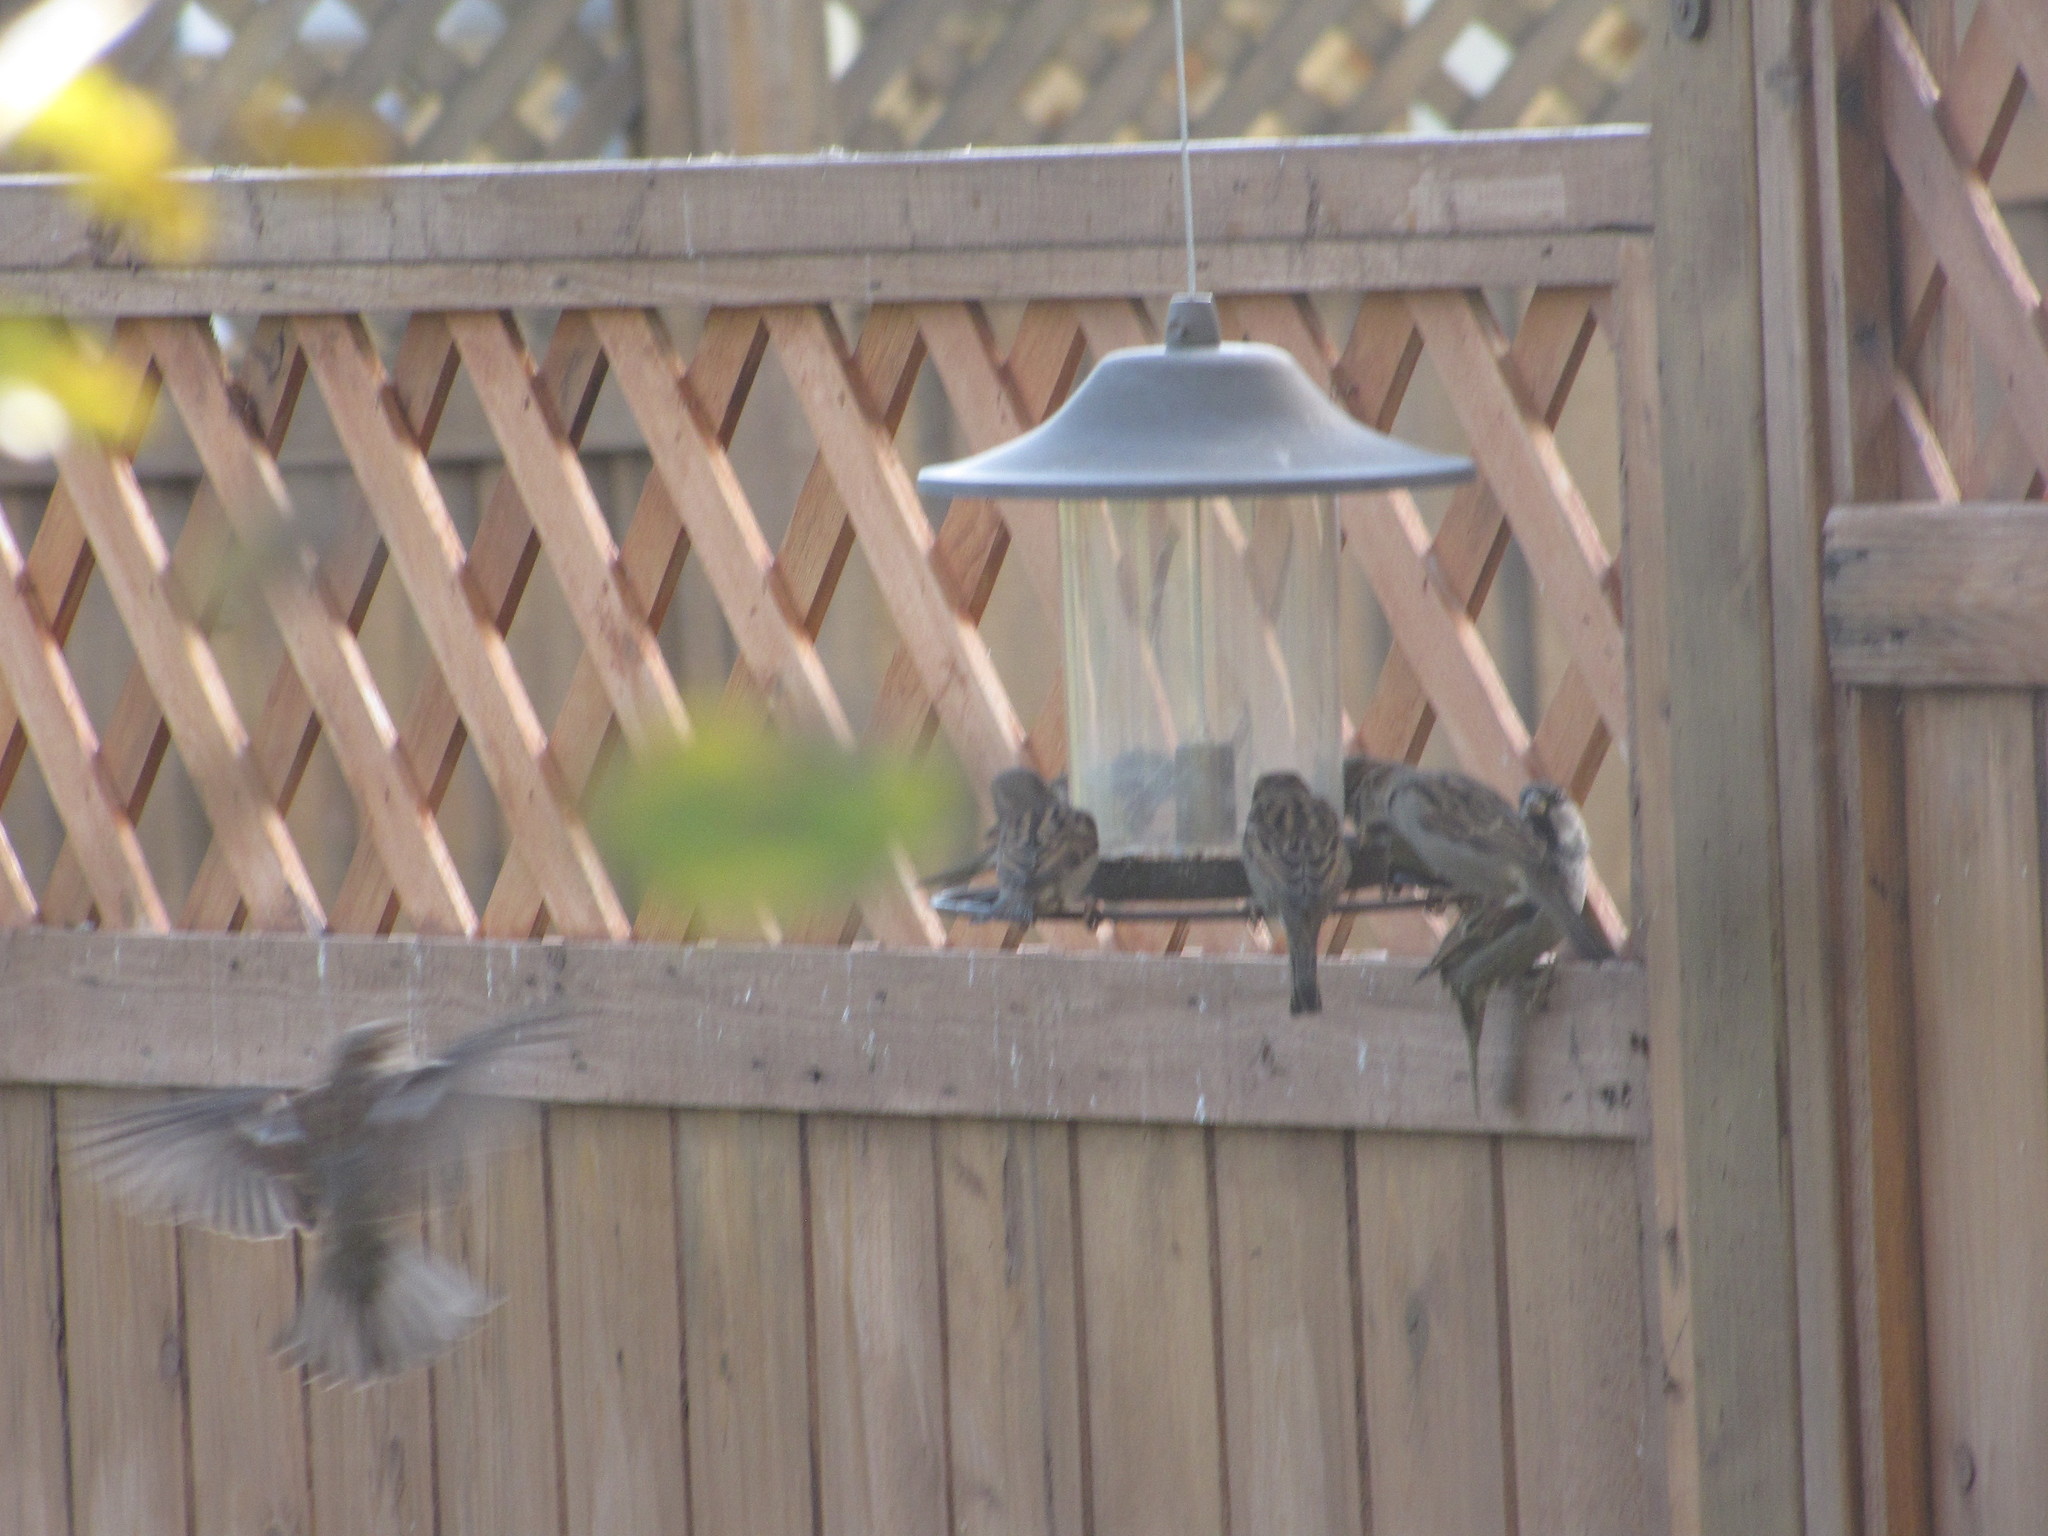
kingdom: Animalia
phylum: Chordata
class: Aves
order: Passeriformes
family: Passeridae
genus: Passer
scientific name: Passer domesticus
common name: House sparrow
